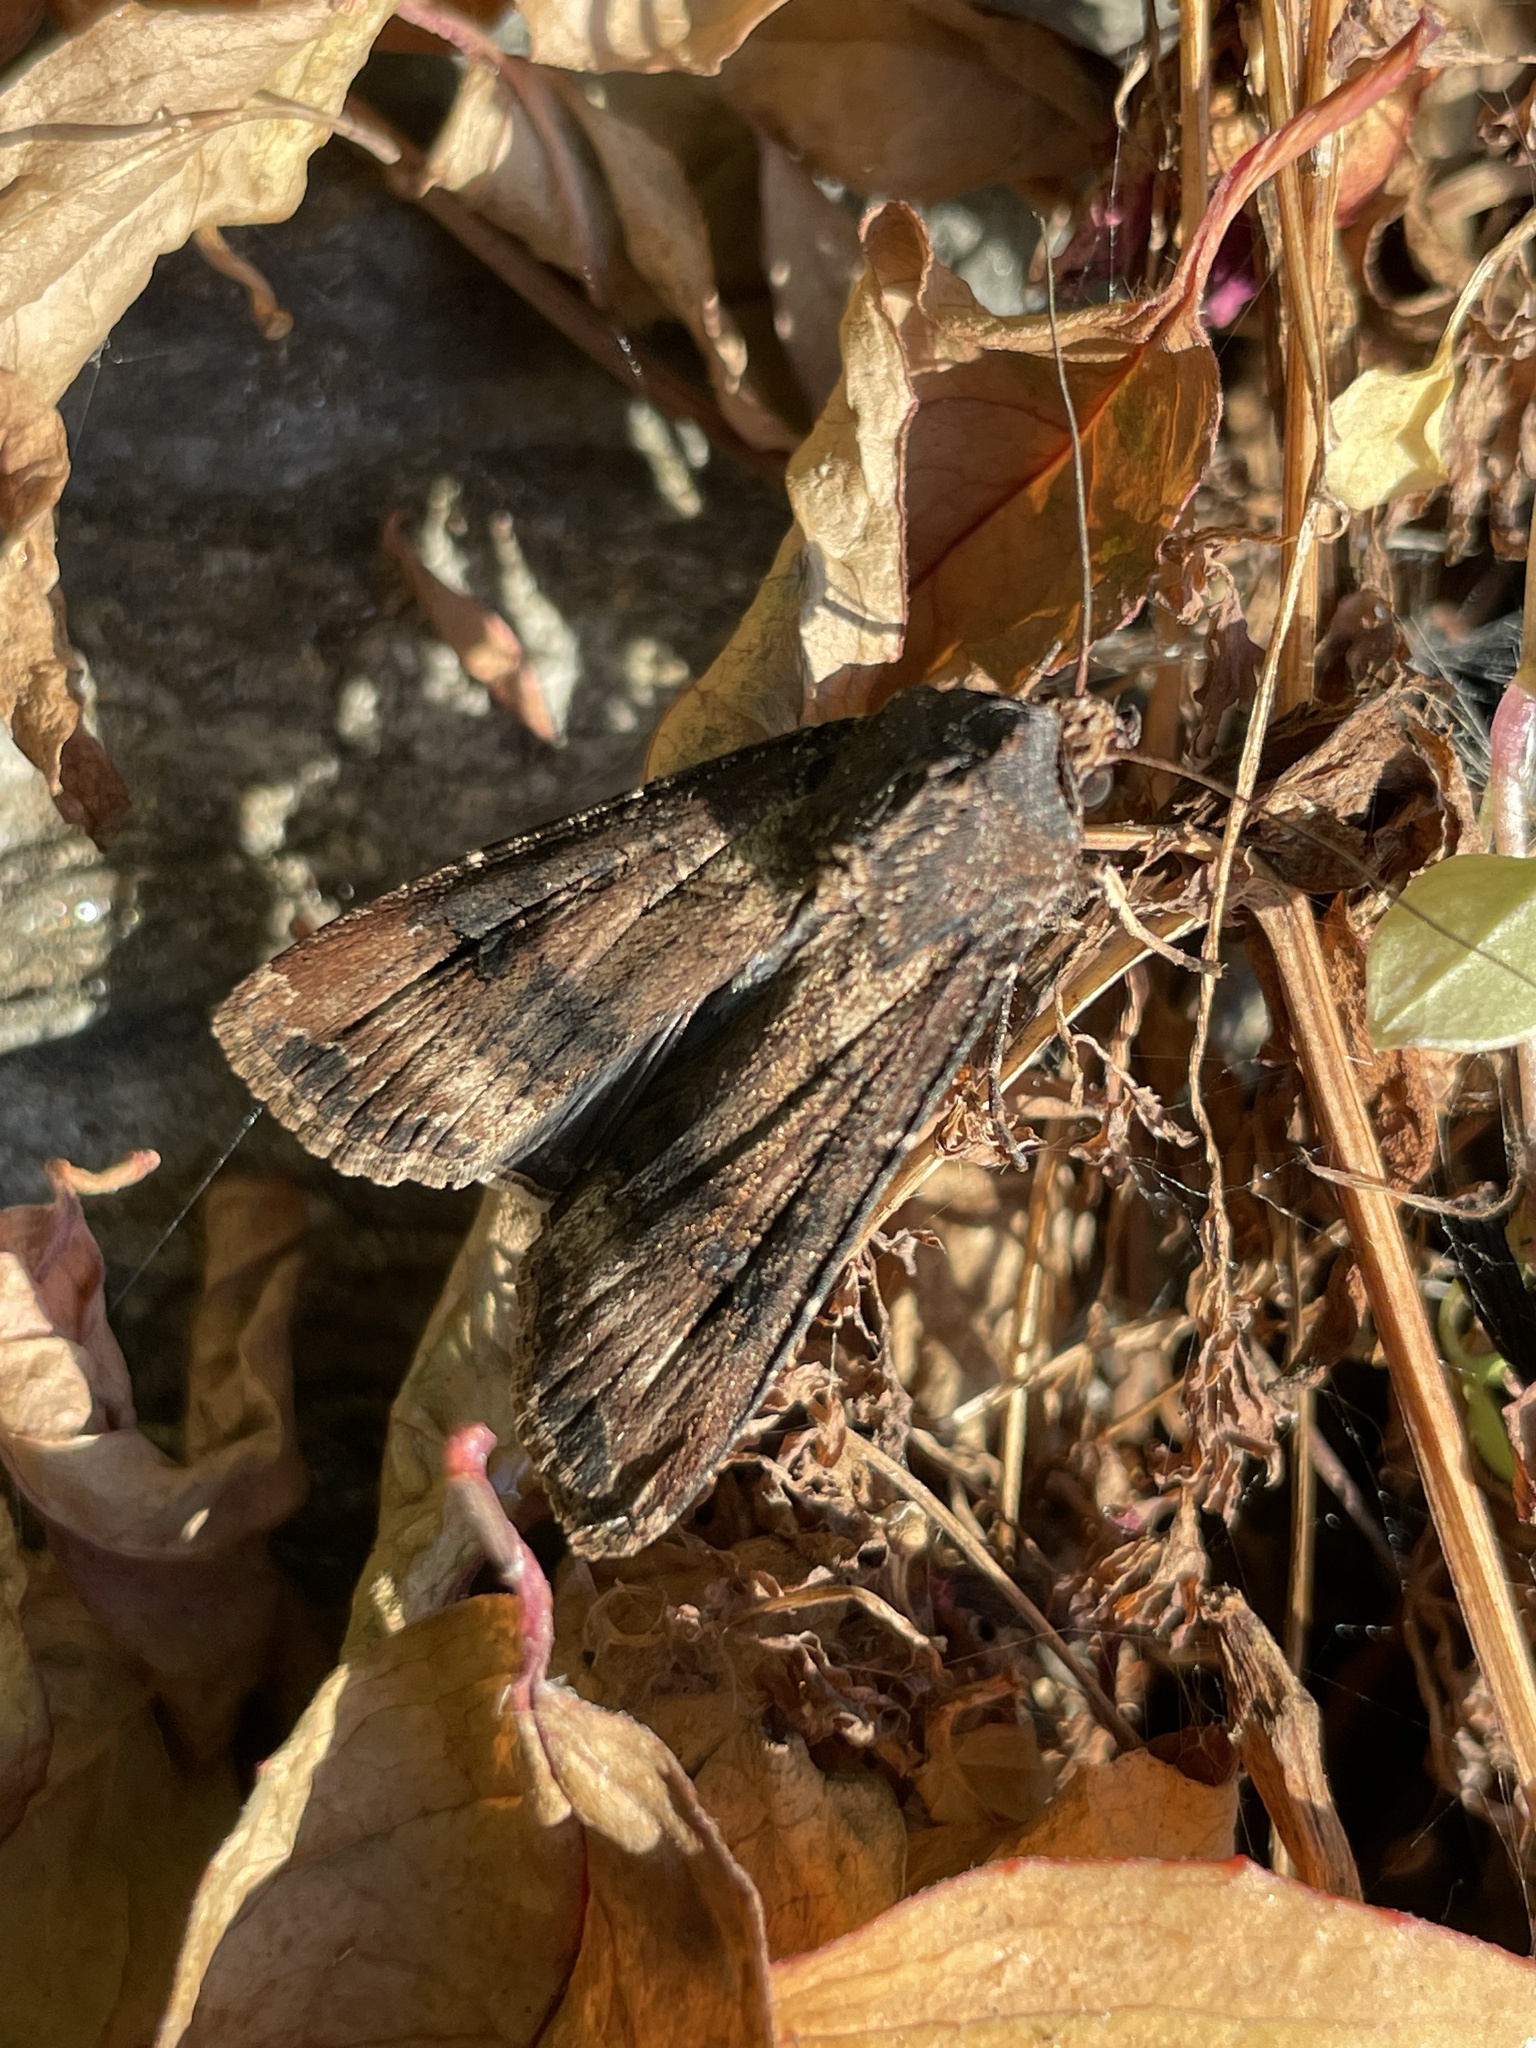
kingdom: Animalia
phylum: Arthropoda
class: Insecta
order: Lepidoptera
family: Noctuidae
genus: Agrotis
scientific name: Agrotis ipsilon
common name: Dark sword-grass
